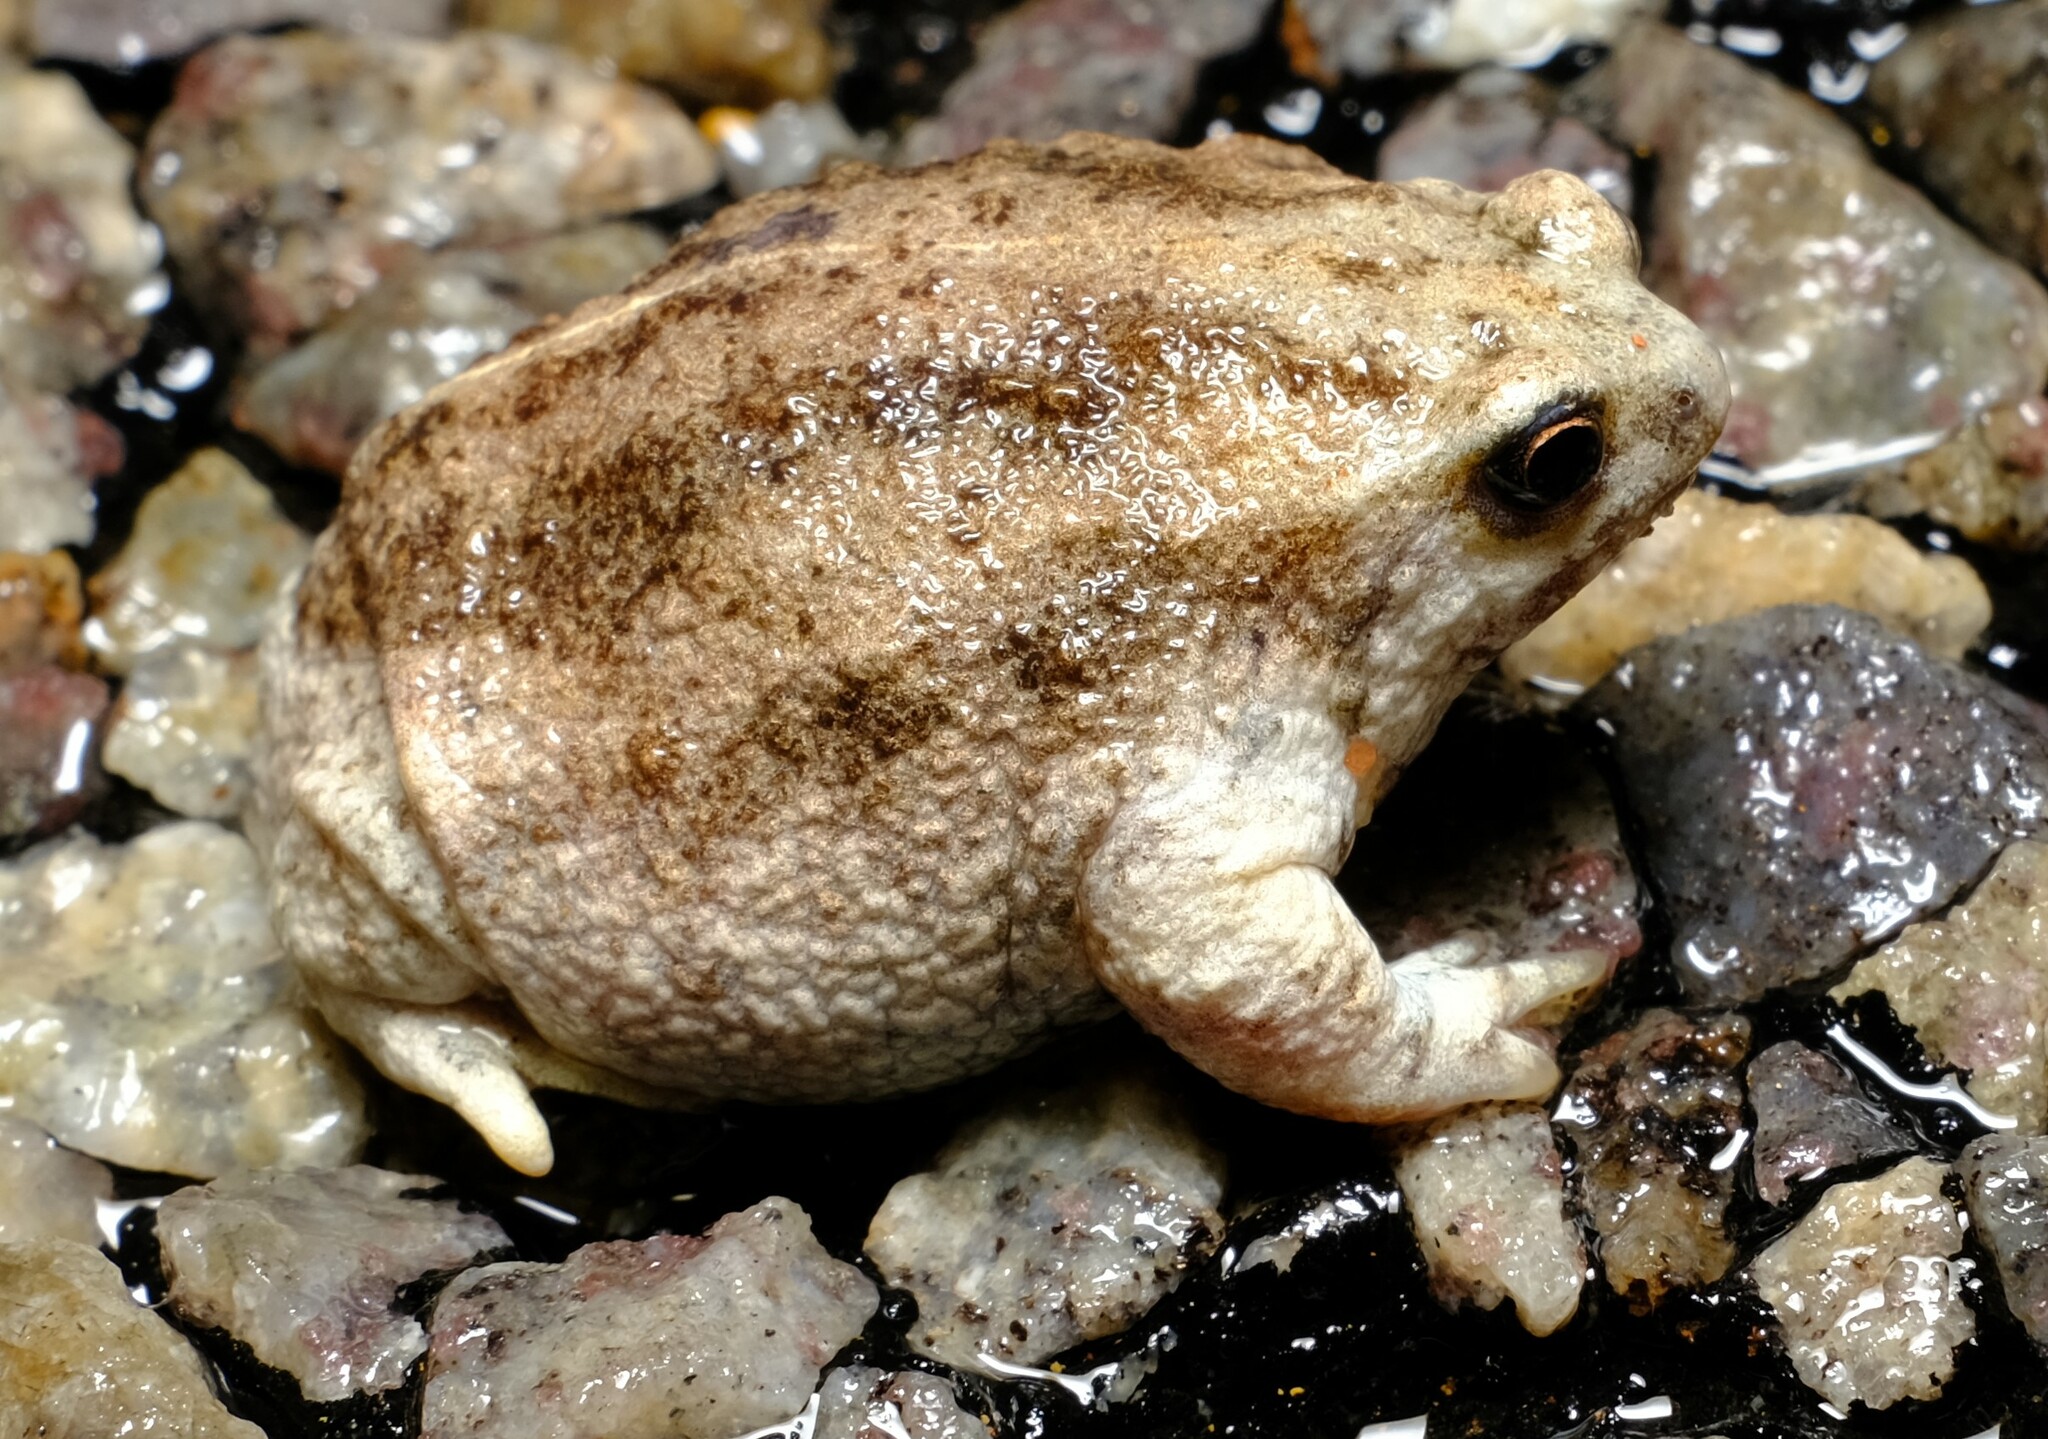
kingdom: Animalia
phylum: Chordata
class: Amphibia
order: Anura
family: Myobatrachidae
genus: Arenophryne
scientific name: Arenophryne xiphorhyncha
